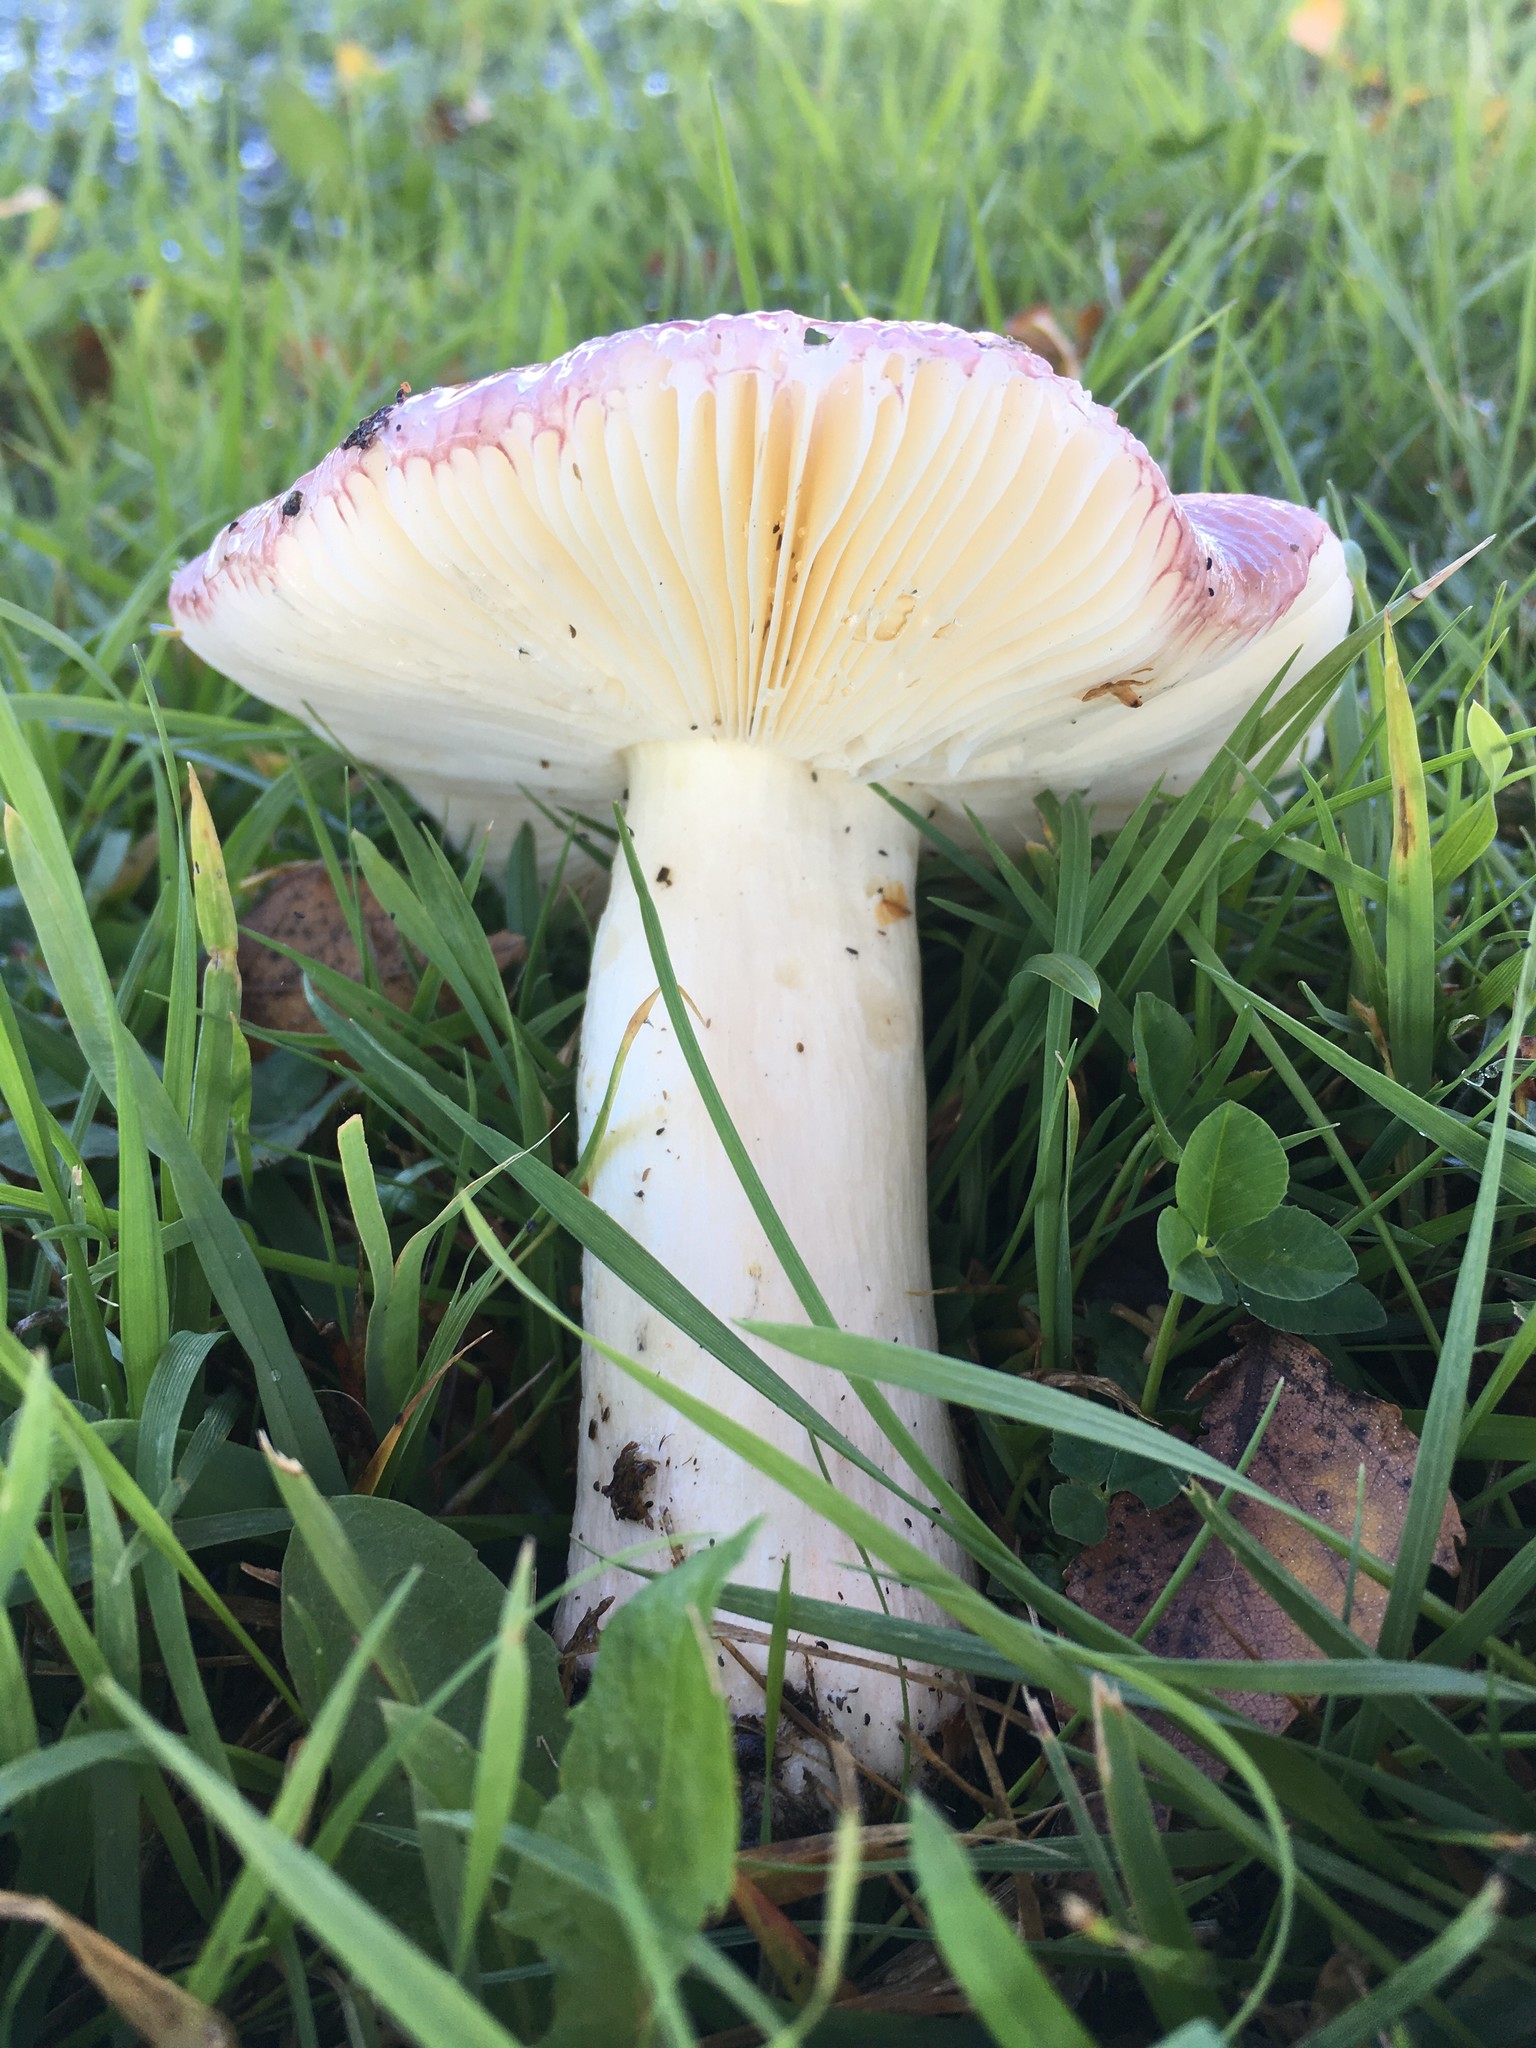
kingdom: Fungi
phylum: Basidiomycota
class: Agaricomycetes
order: Russulales
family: Russulaceae
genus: Russula
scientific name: Russula nitida
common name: Purple swamp brittlegill
